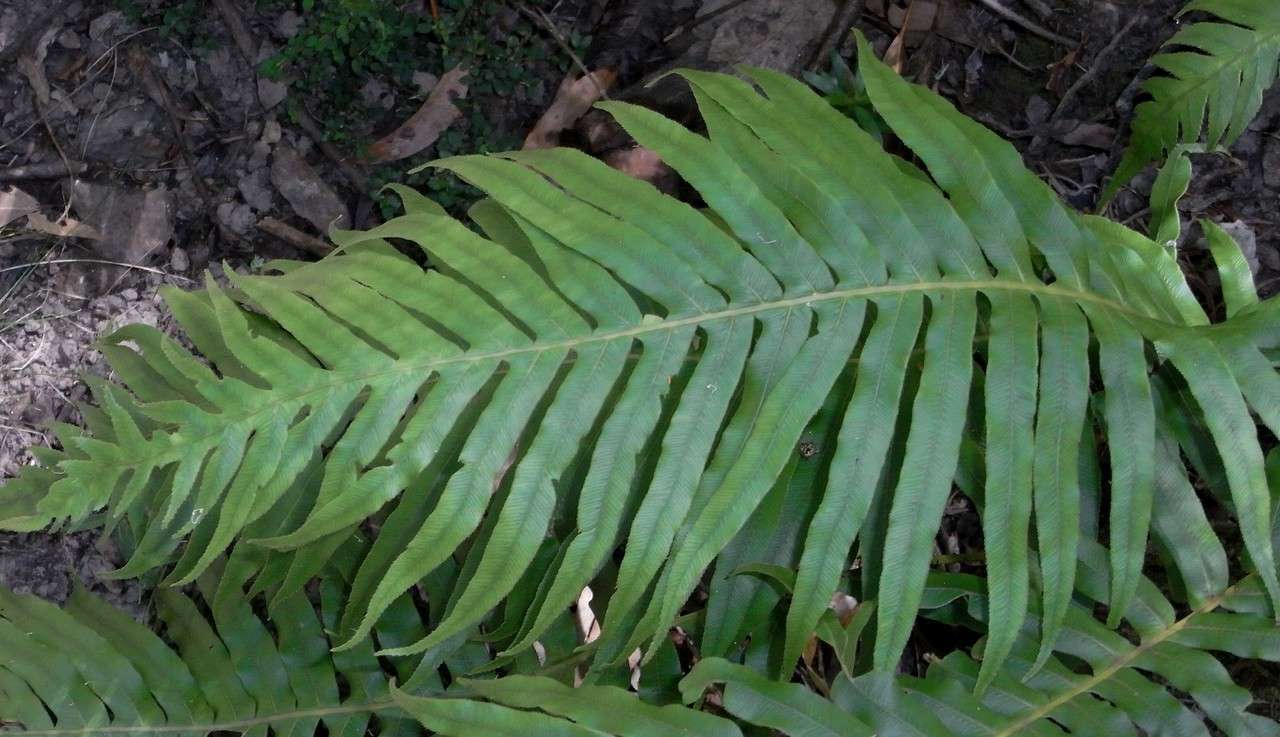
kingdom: Plantae
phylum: Tracheophyta
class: Polypodiopsida
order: Polypodiales
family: Blechnaceae
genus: Oceaniopteris
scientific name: Oceaniopteris cartilaginea
